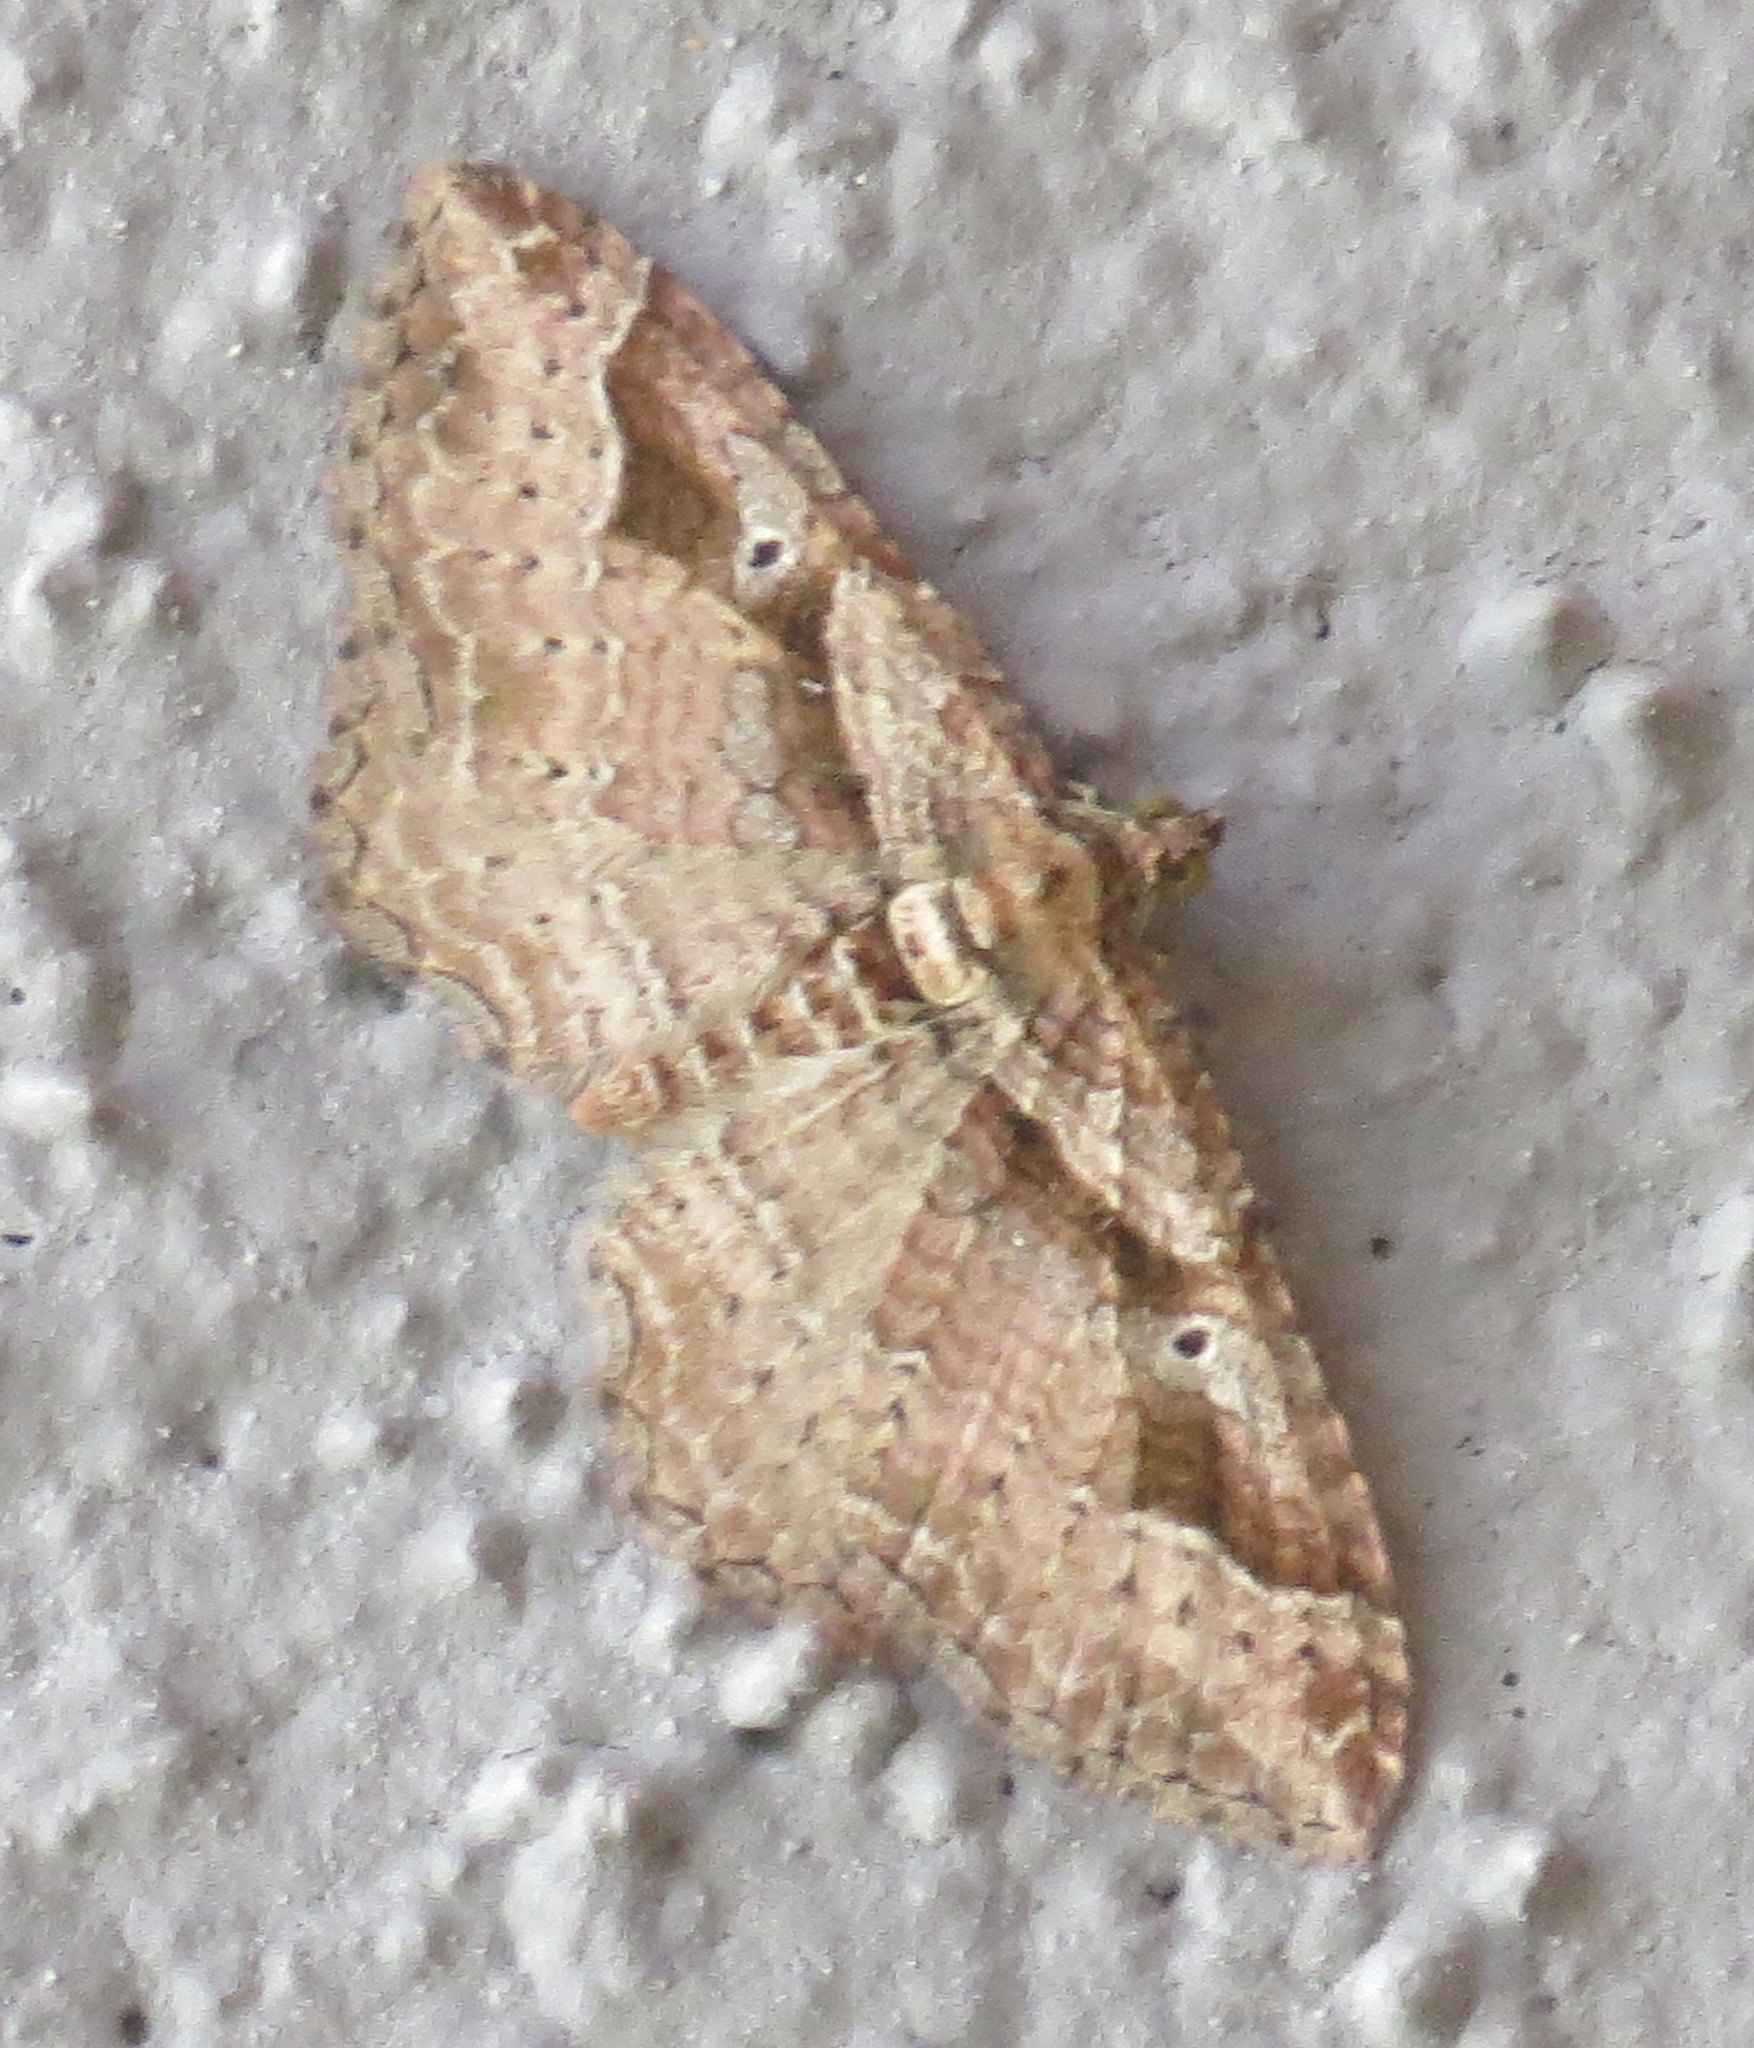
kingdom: Animalia
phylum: Arthropoda
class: Insecta
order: Lepidoptera
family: Geometridae
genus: Costaconvexa
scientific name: Costaconvexa centrostrigaria
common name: Bent-line carpet
